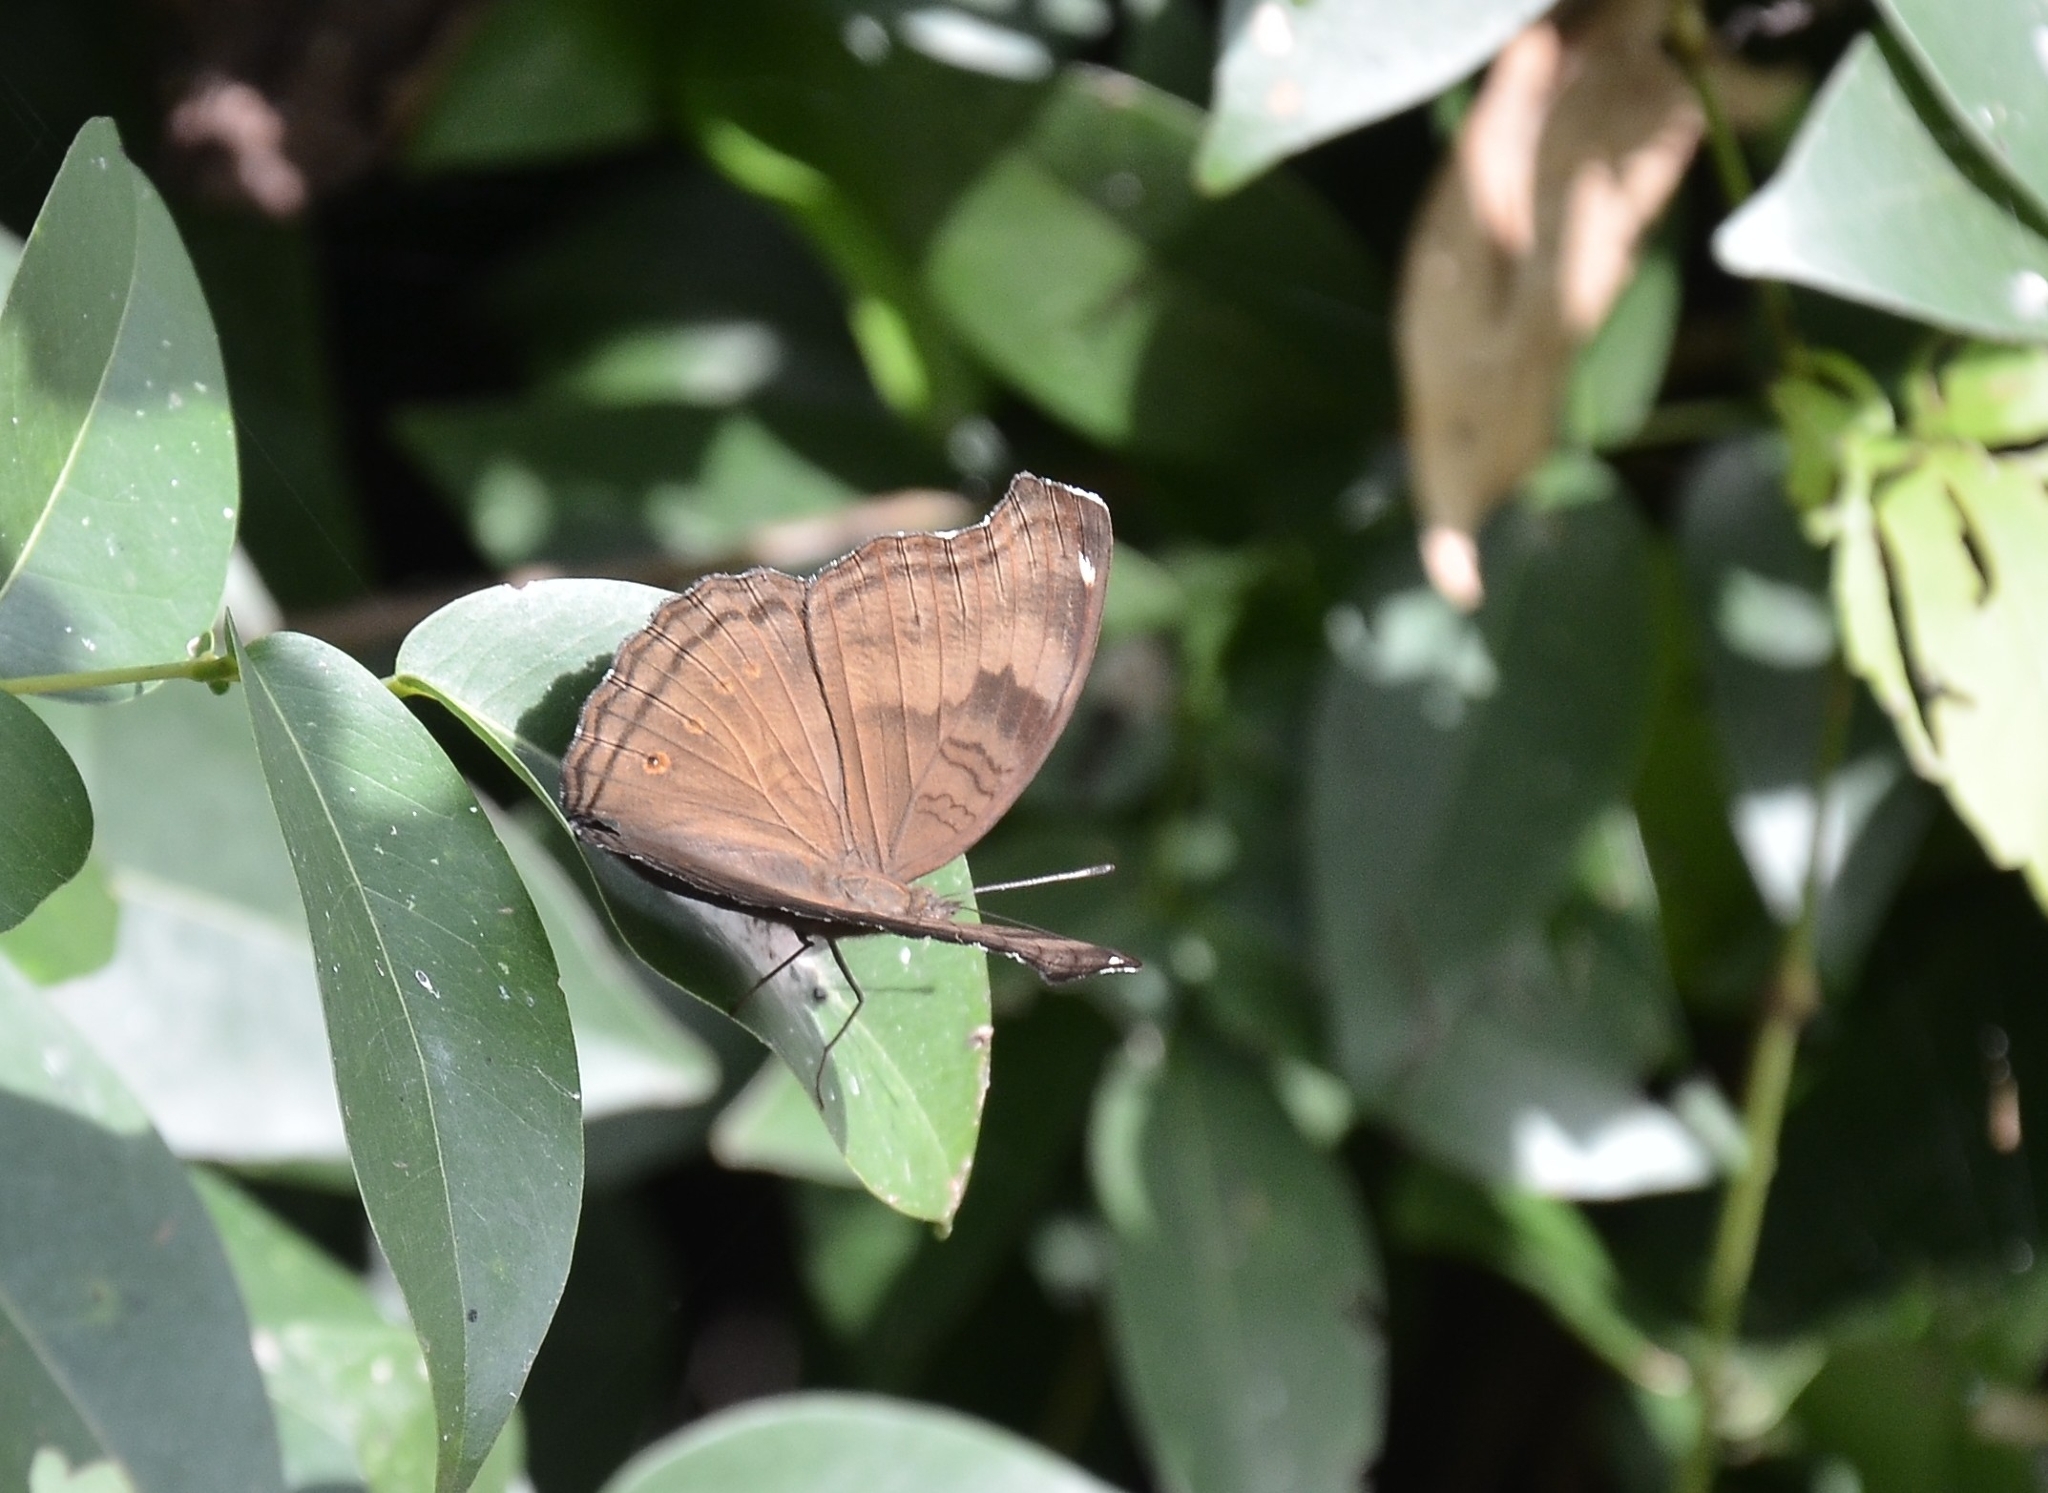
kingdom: Animalia
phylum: Arthropoda
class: Insecta
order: Lepidoptera
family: Nymphalidae
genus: Junonia
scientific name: Junonia iphita
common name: Chocolate pansy
